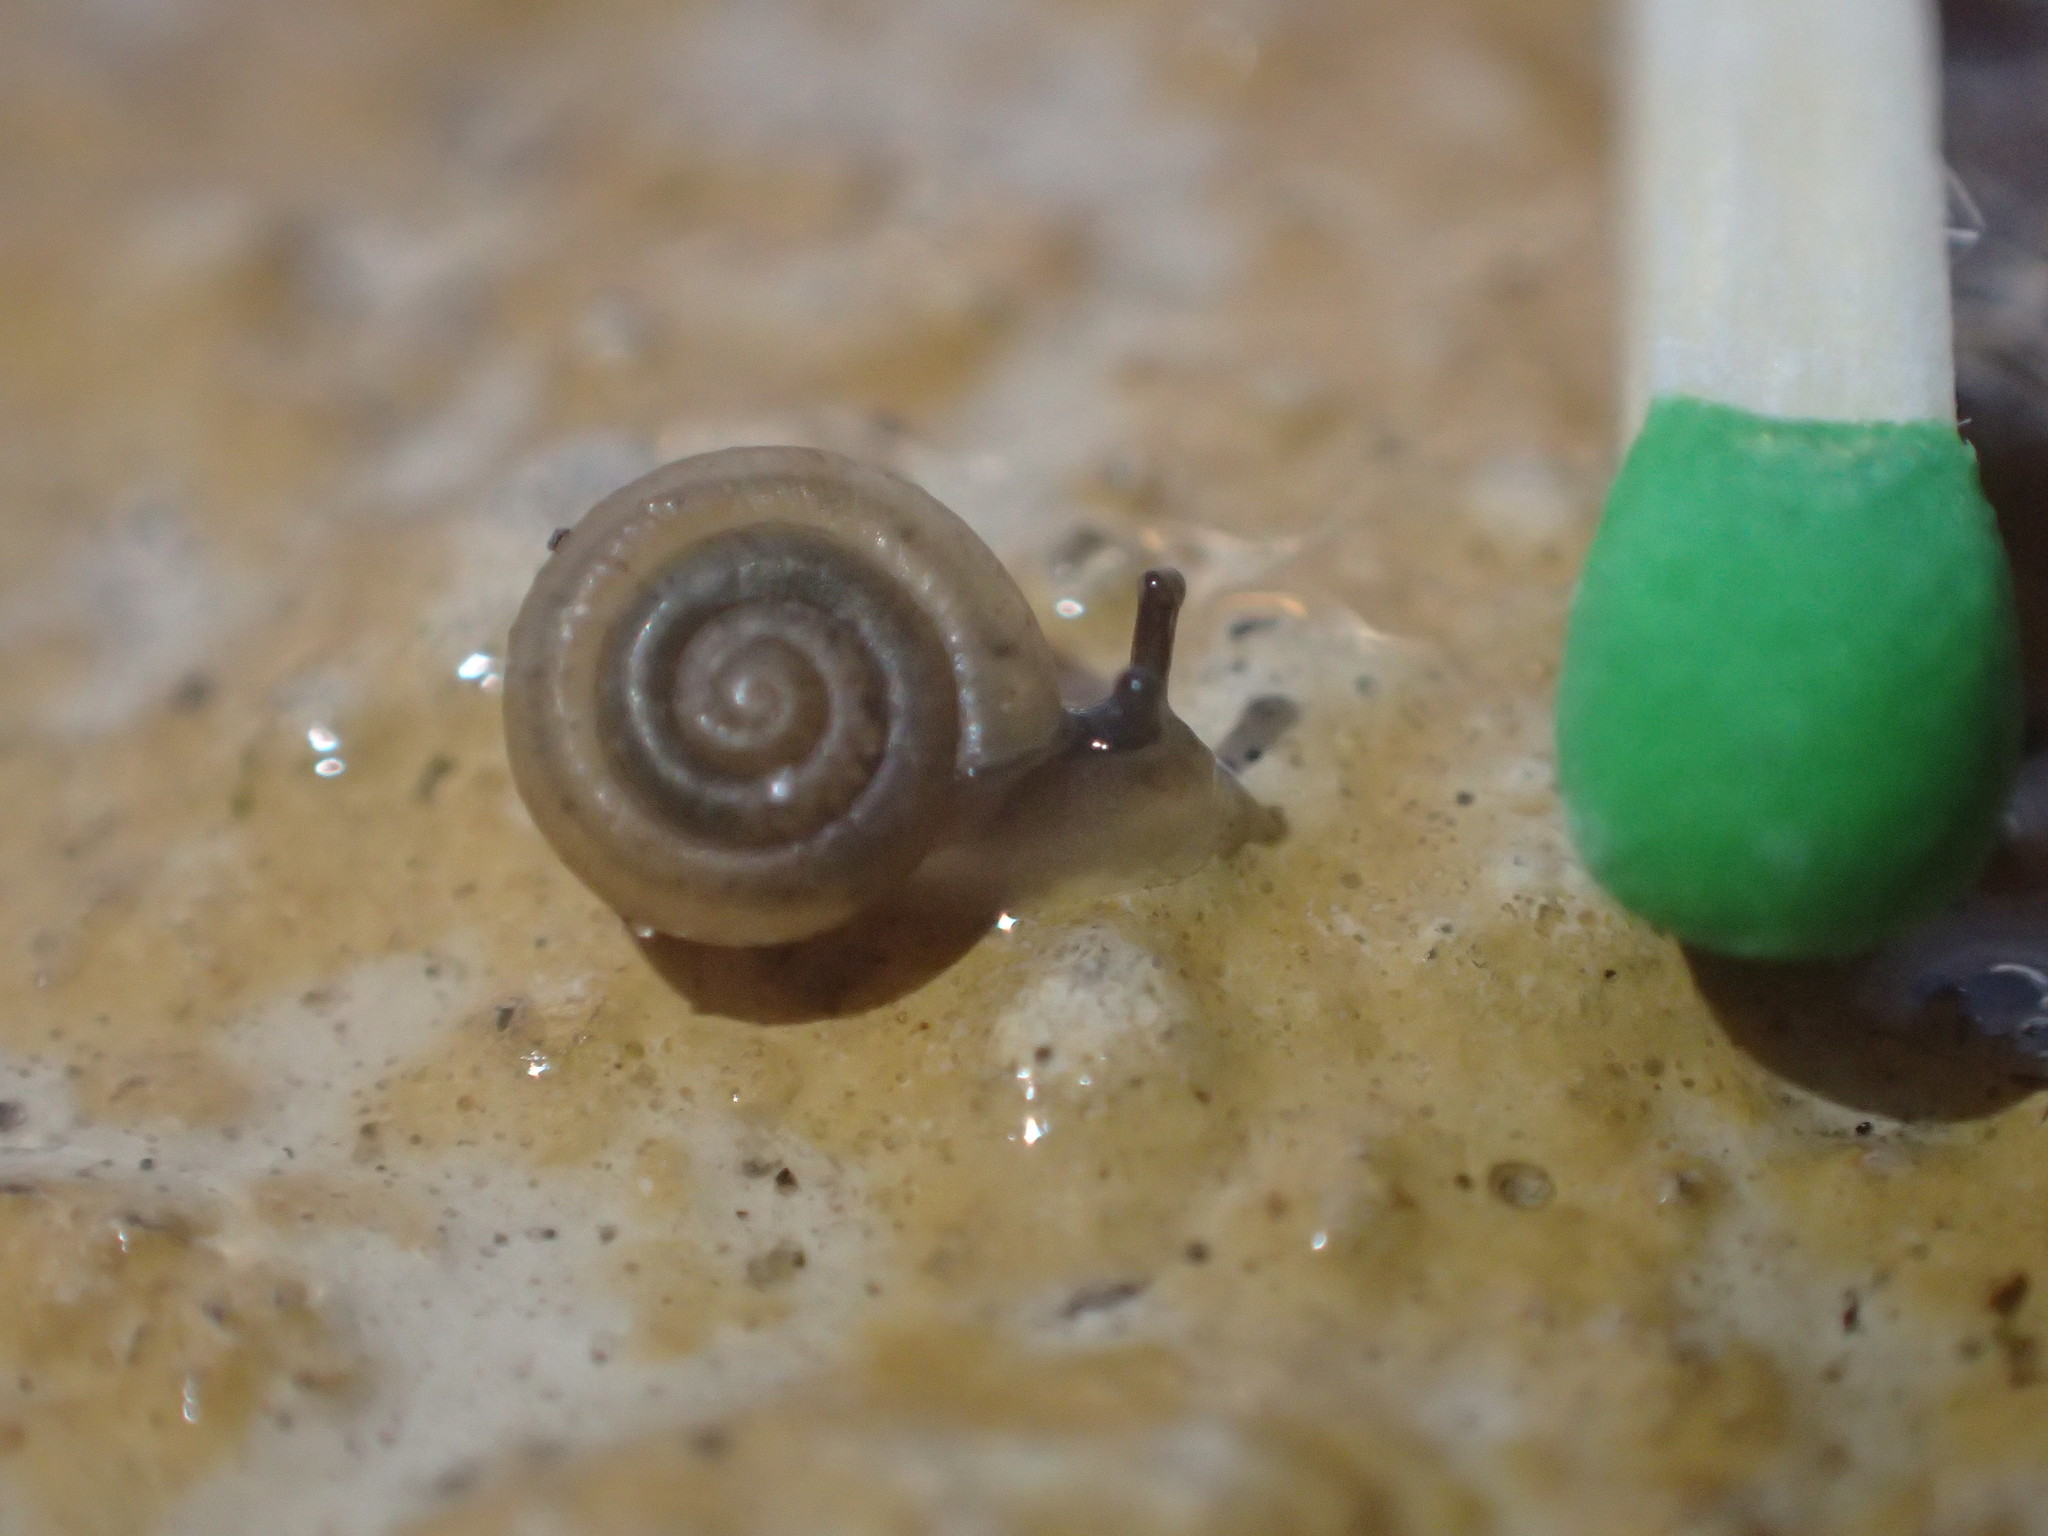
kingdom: Animalia
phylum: Mollusca
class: Gastropoda
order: Stylommatophora
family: Polygyridae
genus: Polygyra
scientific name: Polygyra cereolus
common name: Southern flatcone snail
